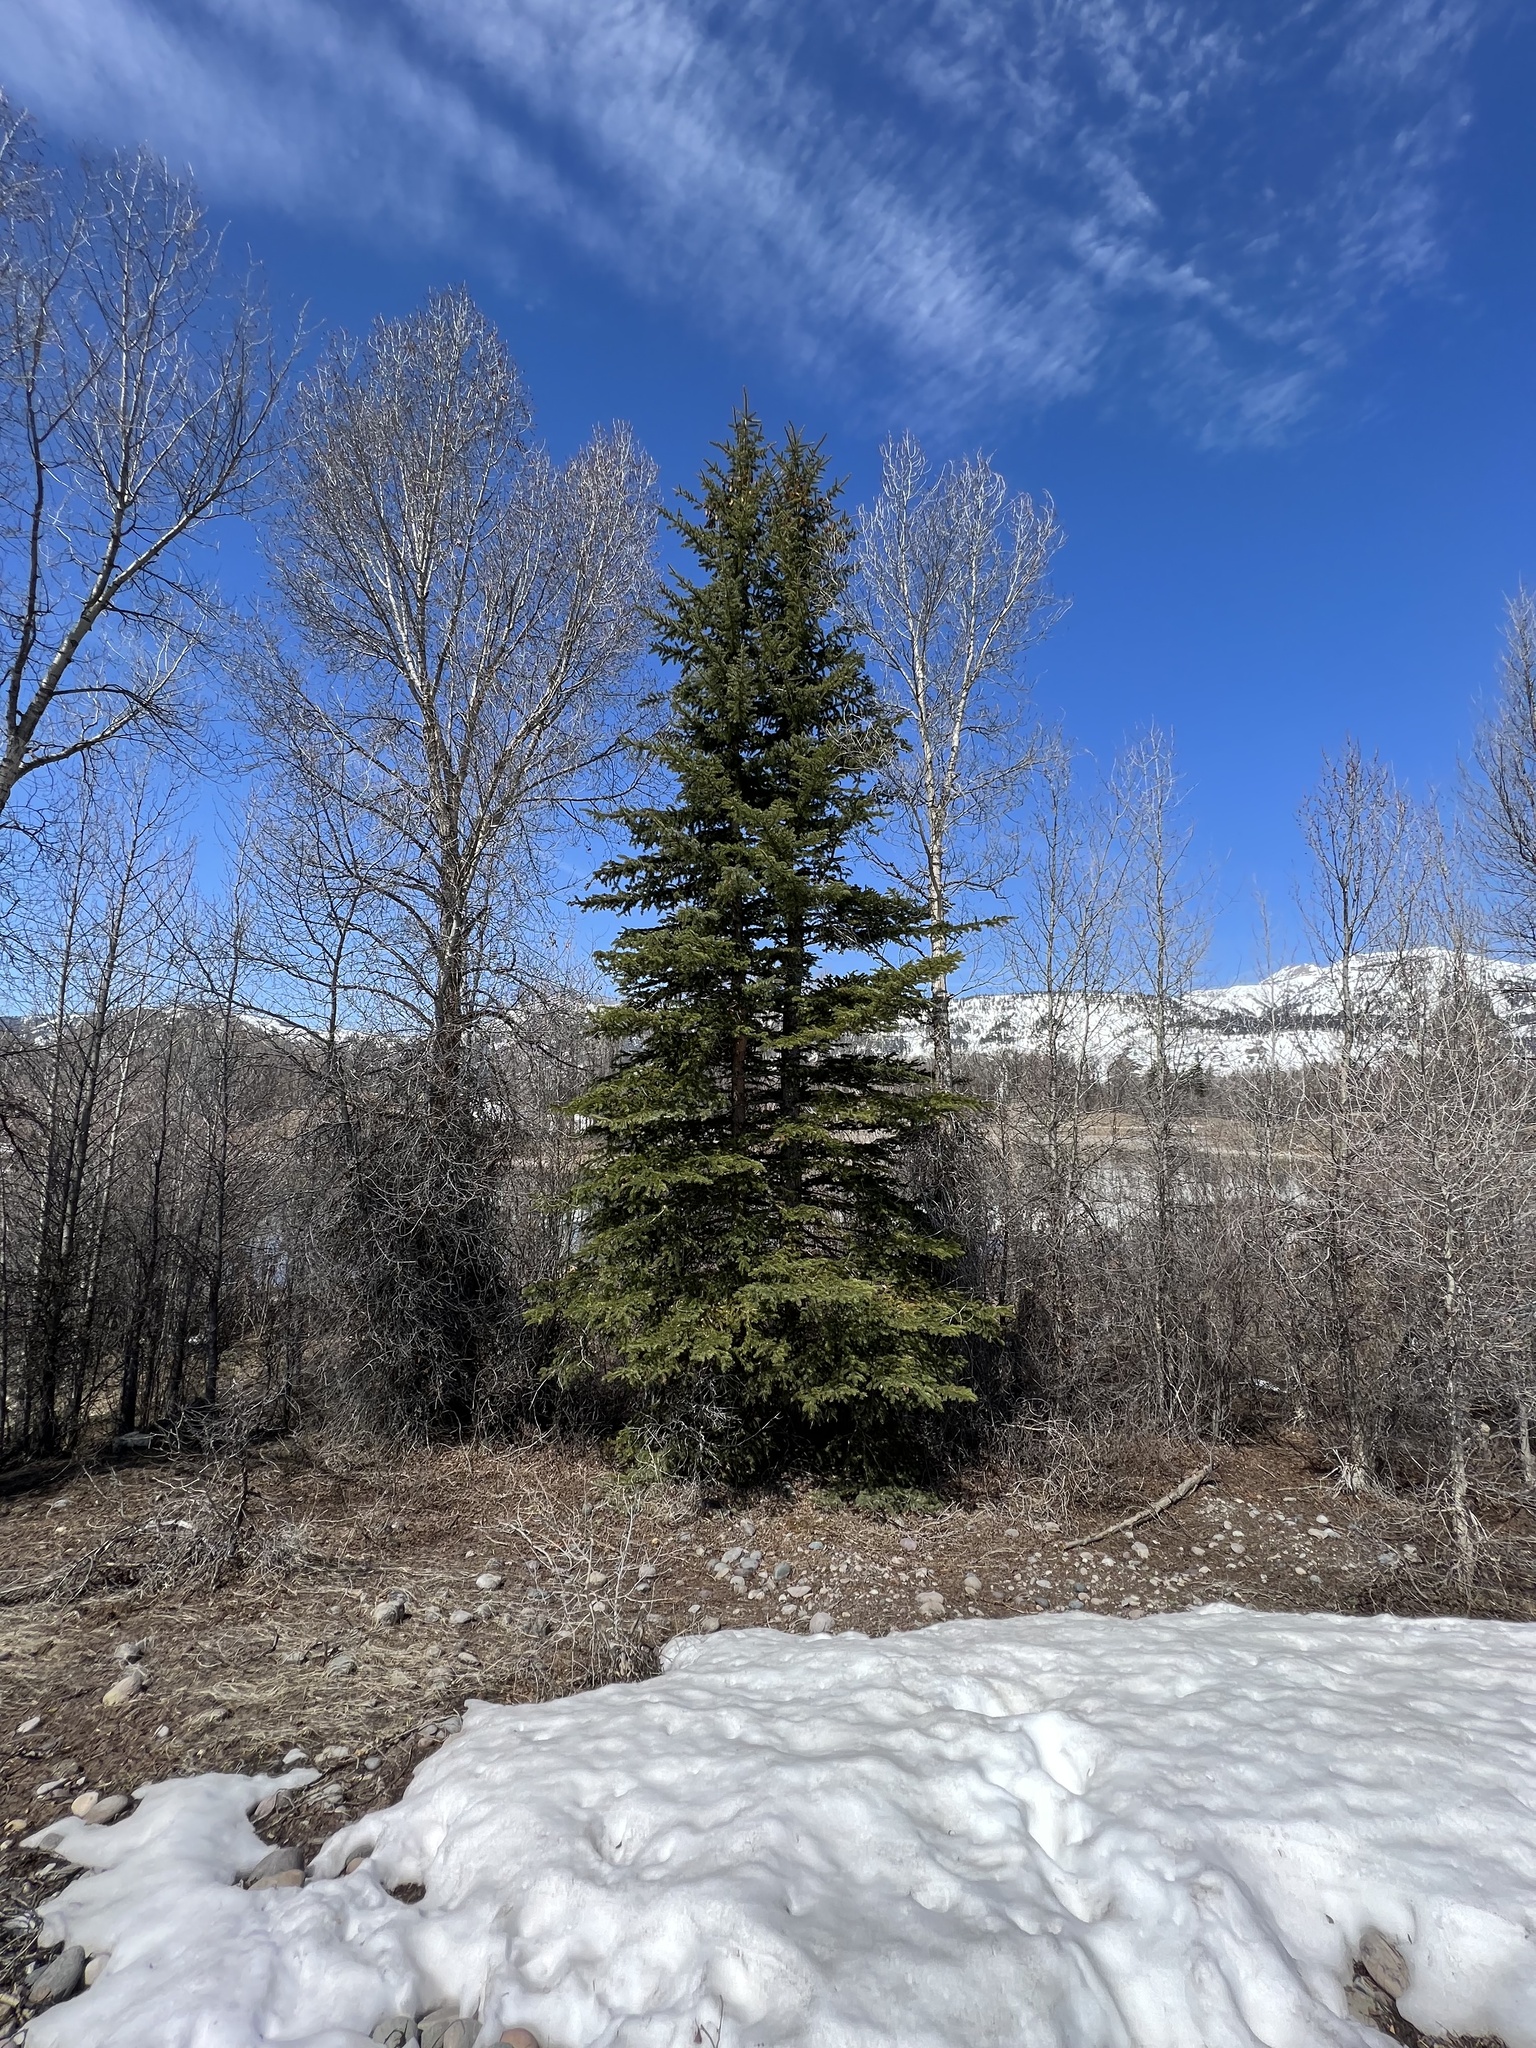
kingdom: Plantae
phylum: Tracheophyta
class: Pinopsida
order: Pinales
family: Pinaceae
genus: Picea
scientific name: Picea pungens
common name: Colorado spruce
